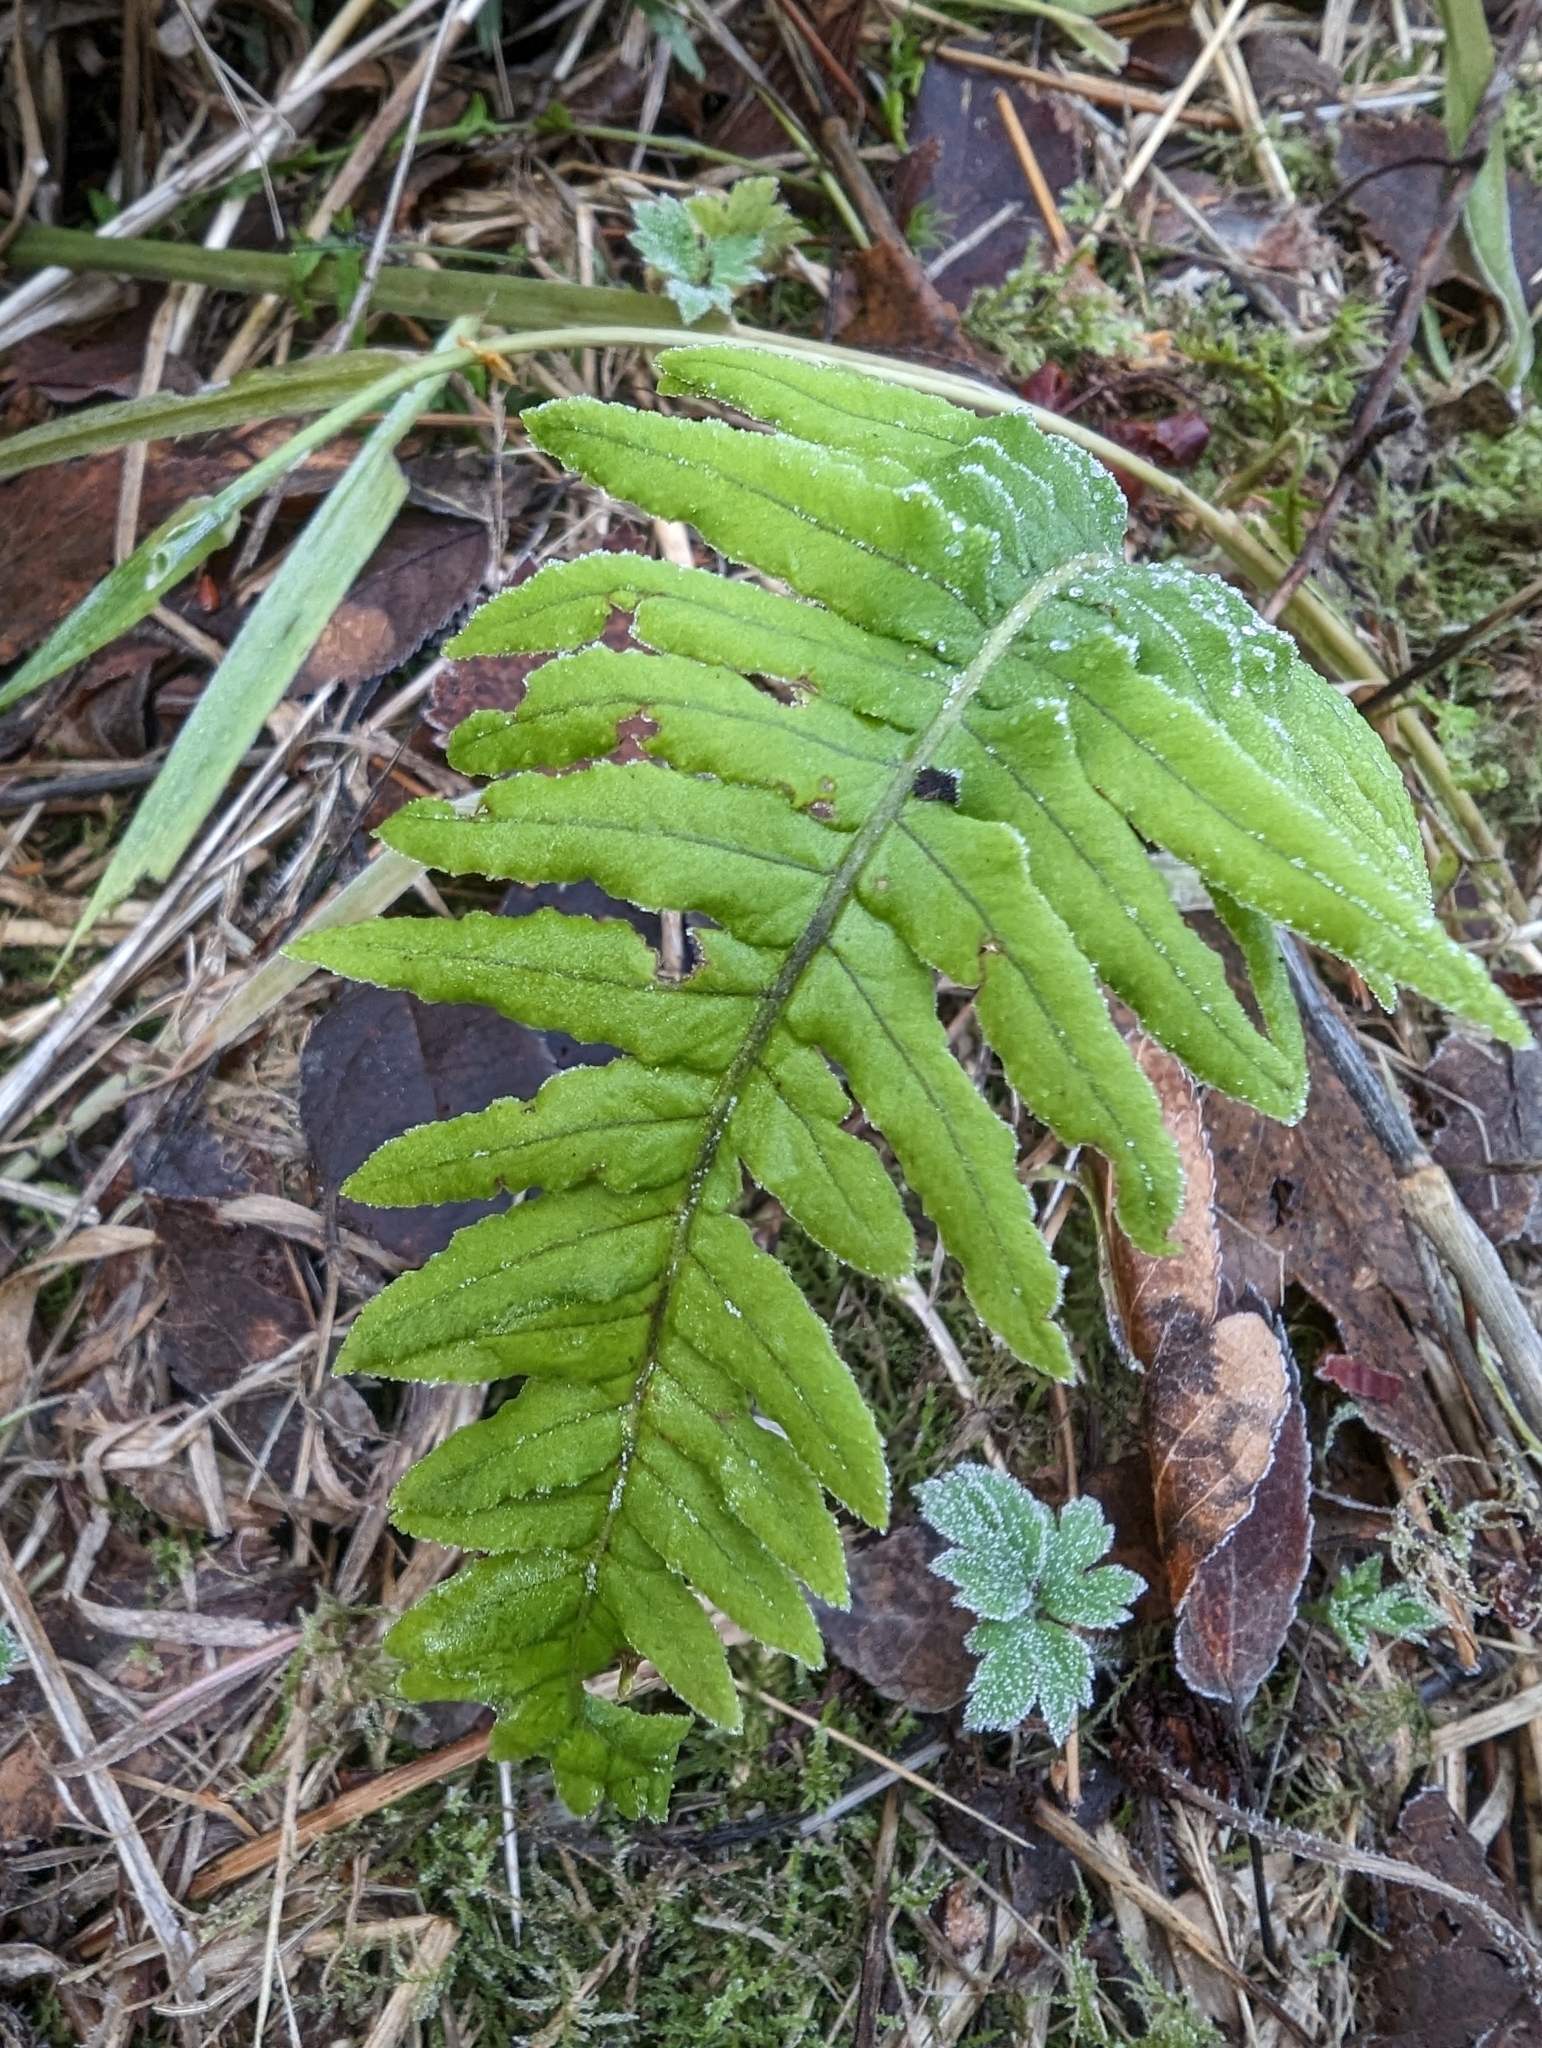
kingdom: Plantae
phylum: Tracheophyta
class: Polypodiopsida
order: Polypodiales
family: Polypodiaceae
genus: Polypodium
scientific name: Polypodium glycyrrhiza
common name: Licorice fern
